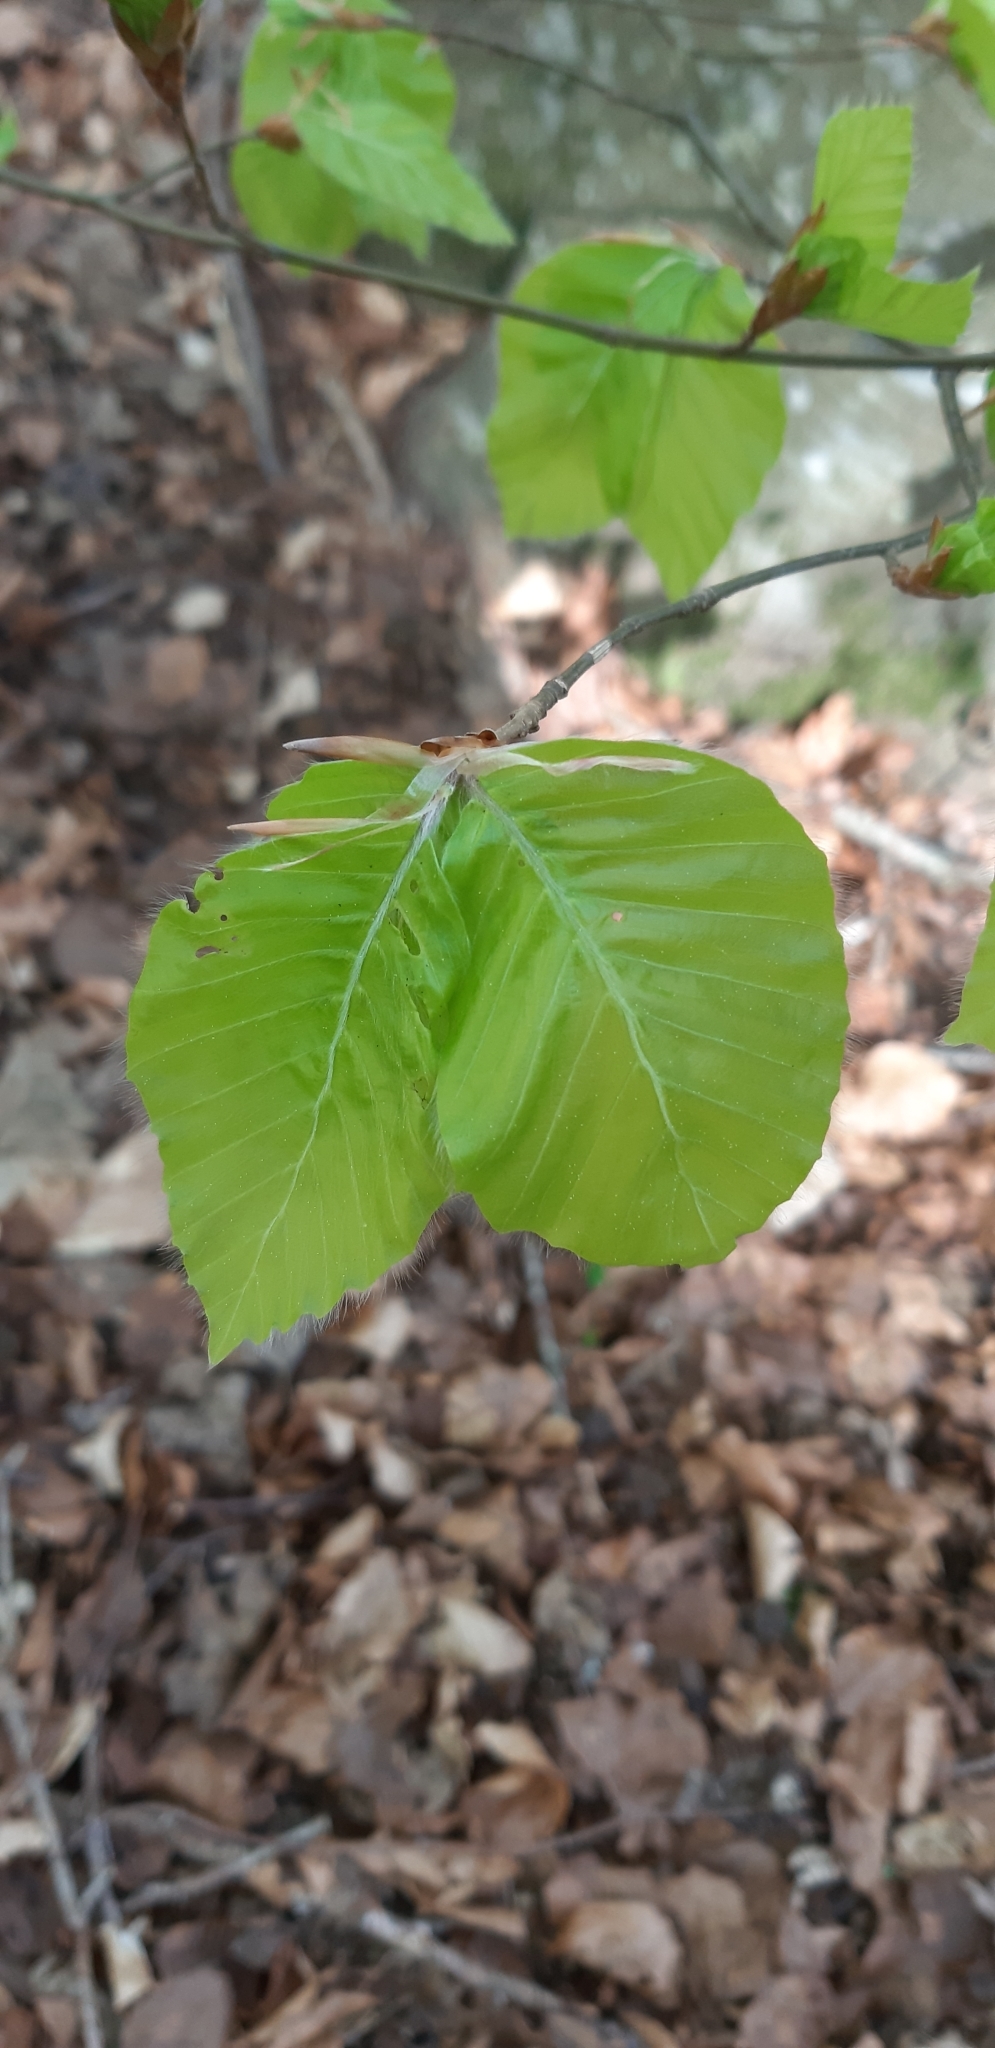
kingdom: Plantae
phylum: Tracheophyta
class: Magnoliopsida
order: Fagales
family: Fagaceae
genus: Fagus
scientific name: Fagus sylvatica
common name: Beech
